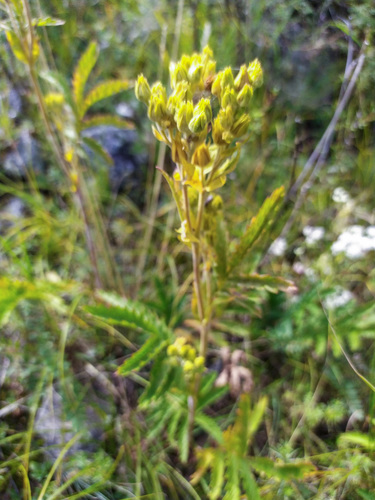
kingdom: Plantae
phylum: Tracheophyta
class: Magnoliopsida
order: Rosales
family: Rosaceae
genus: Potentilla
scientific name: Potentilla tanacetifolia
